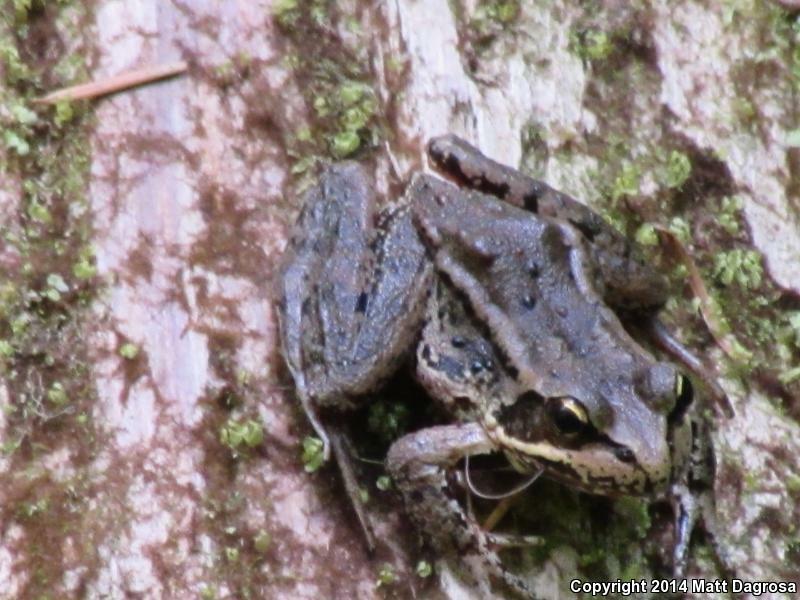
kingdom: Animalia
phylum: Chordata
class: Amphibia
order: Anura
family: Ranidae
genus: Rana
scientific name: Rana aurora
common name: Red-legged frog
